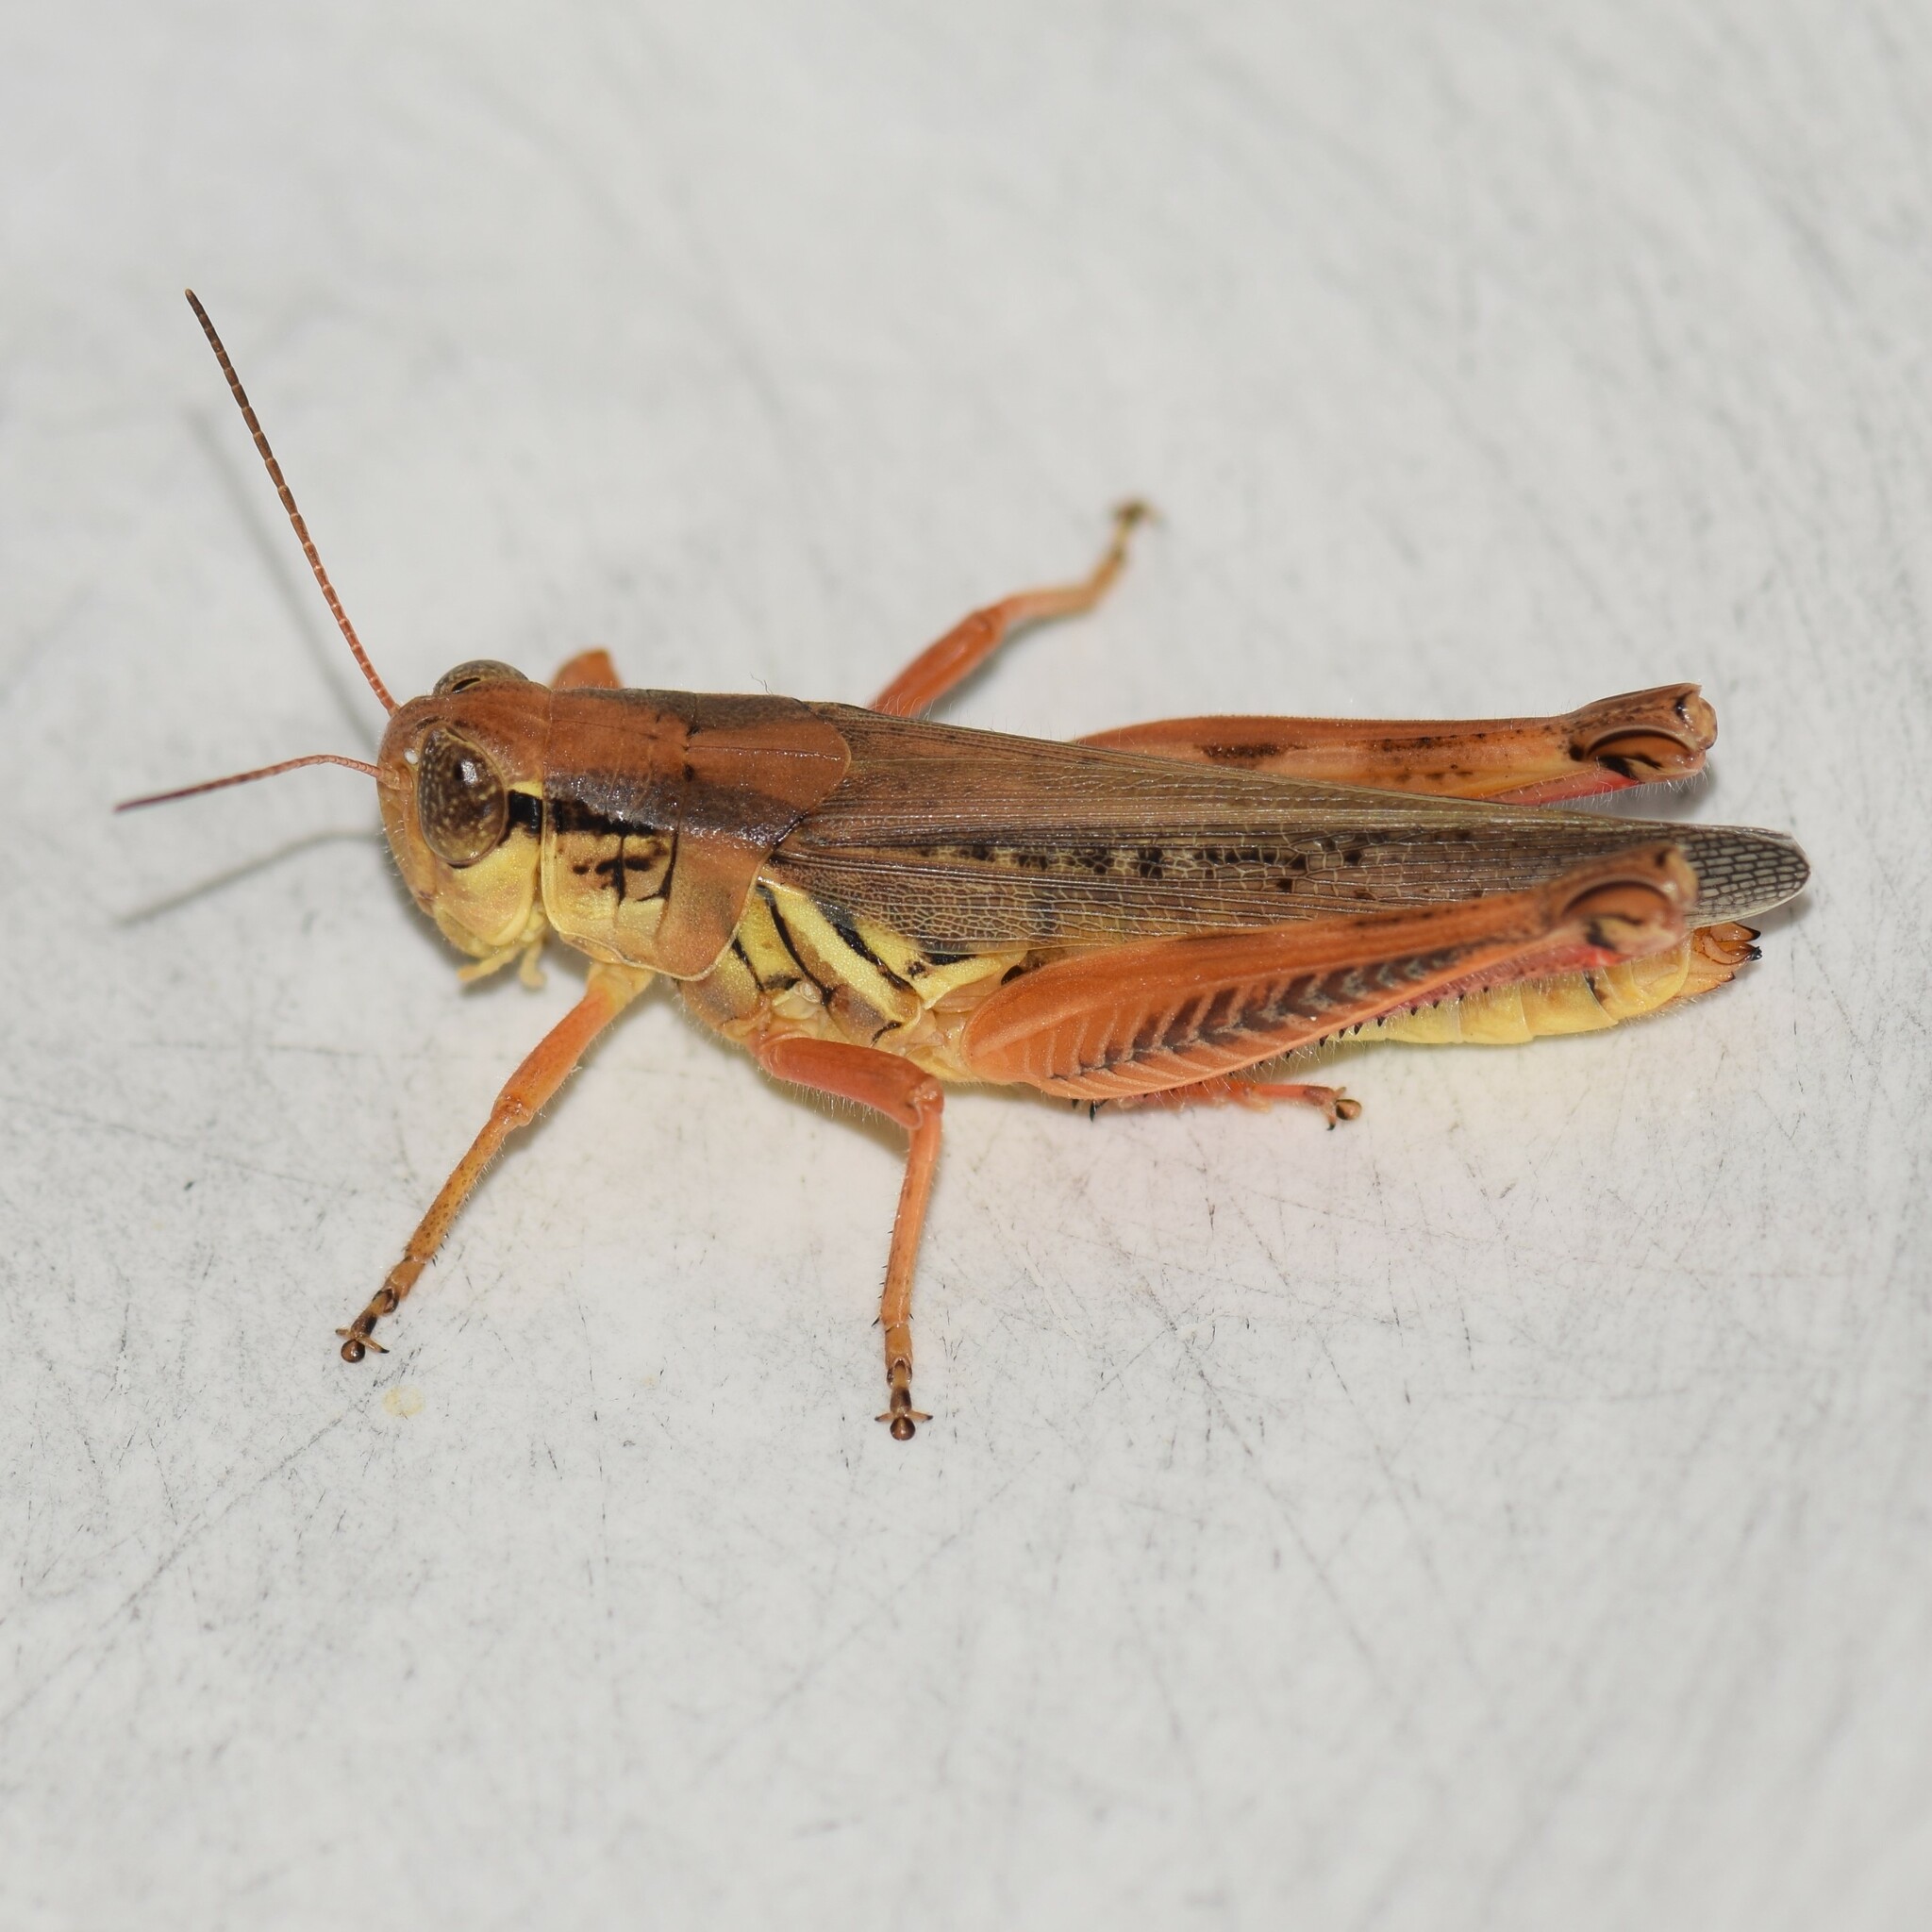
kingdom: Animalia
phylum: Arthropoda
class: Insecta
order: Orthoptera
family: Acrididae
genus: Melanoplus
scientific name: Melanoplus femurrubrum
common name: Red-legged grasshopper
